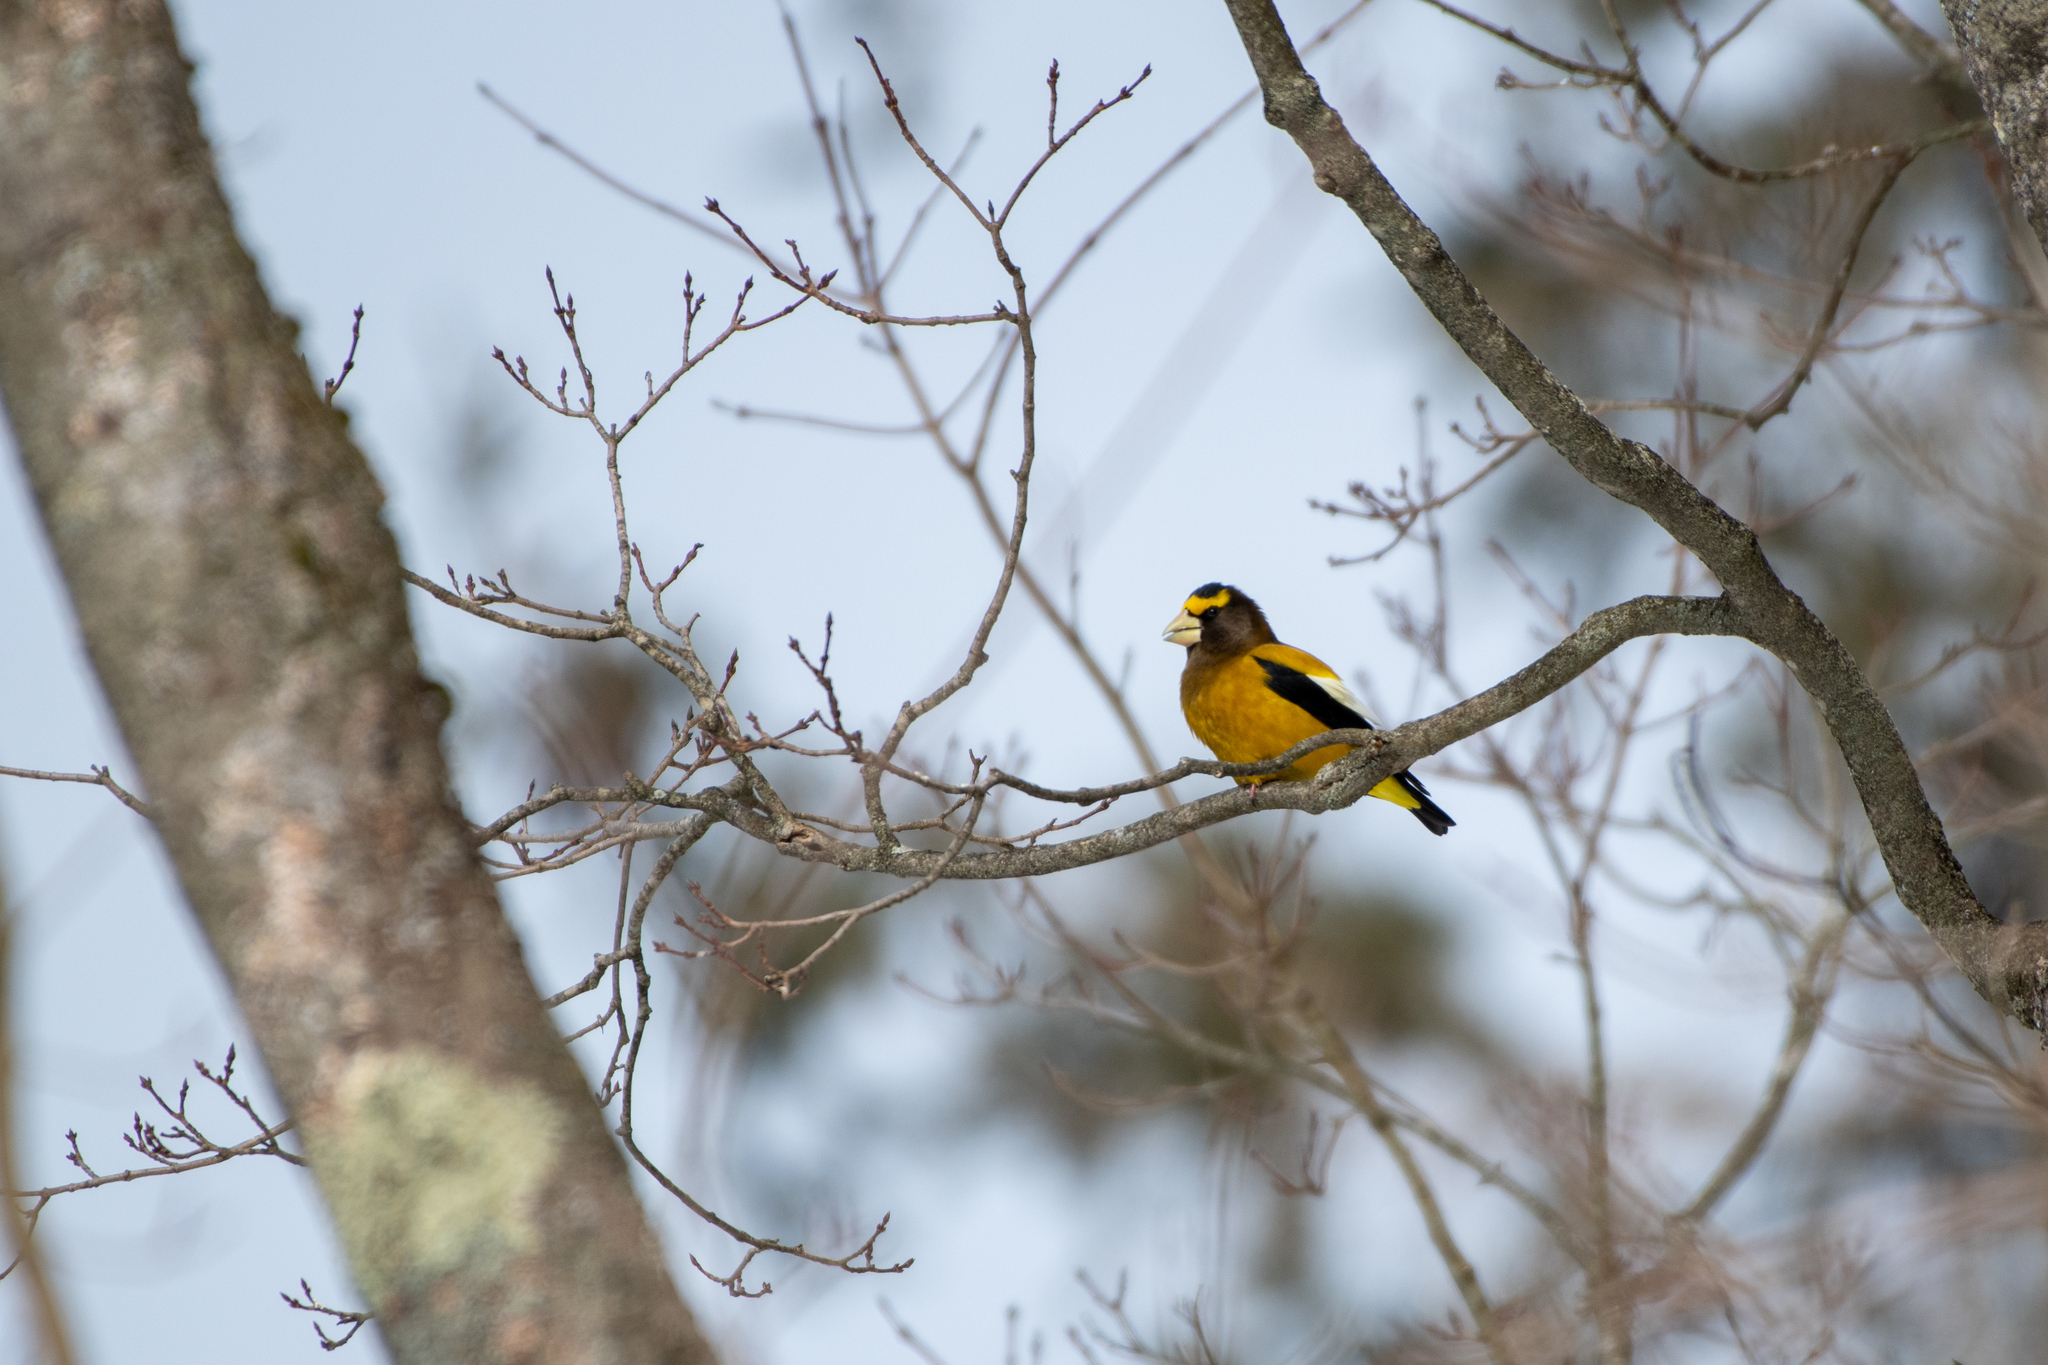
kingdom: Animalia
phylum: Chordata
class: Aves
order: Passeriformes
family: Fringillidae
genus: Hesperiphona
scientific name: Hesperiphona vespertina
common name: Evening grosbeak
